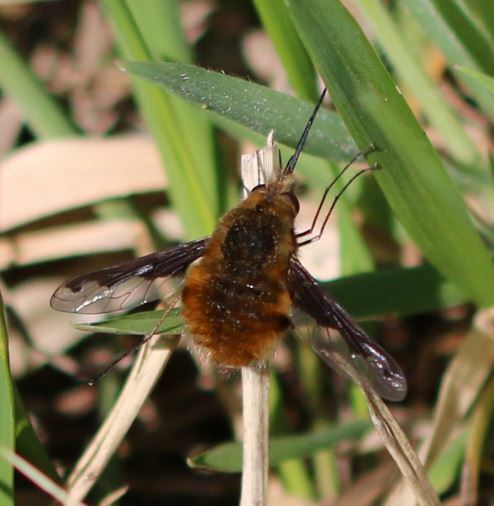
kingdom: Animalia
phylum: Arthropoda
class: Insecta
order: Diptera
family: Bombyliidae
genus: Bombylius
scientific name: Bombylius major
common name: Bee fly
